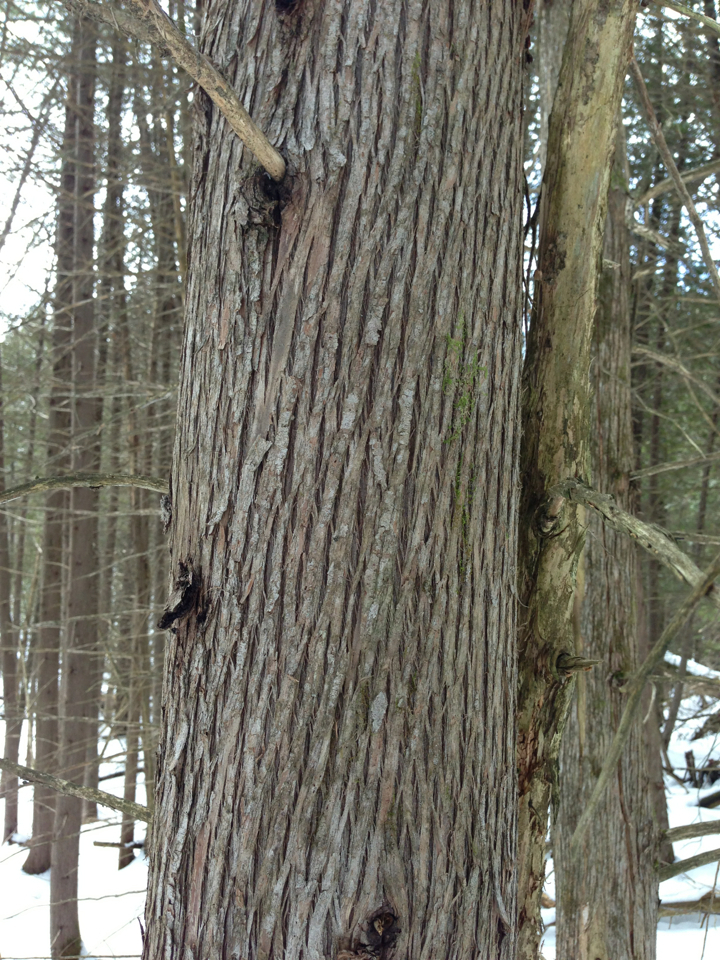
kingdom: Plantae
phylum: Tracheophyta
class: Pinopsida
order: Pinales
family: Cupressaceae
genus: Thuja
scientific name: Thuja occidentalis
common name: Northern white-cedar
